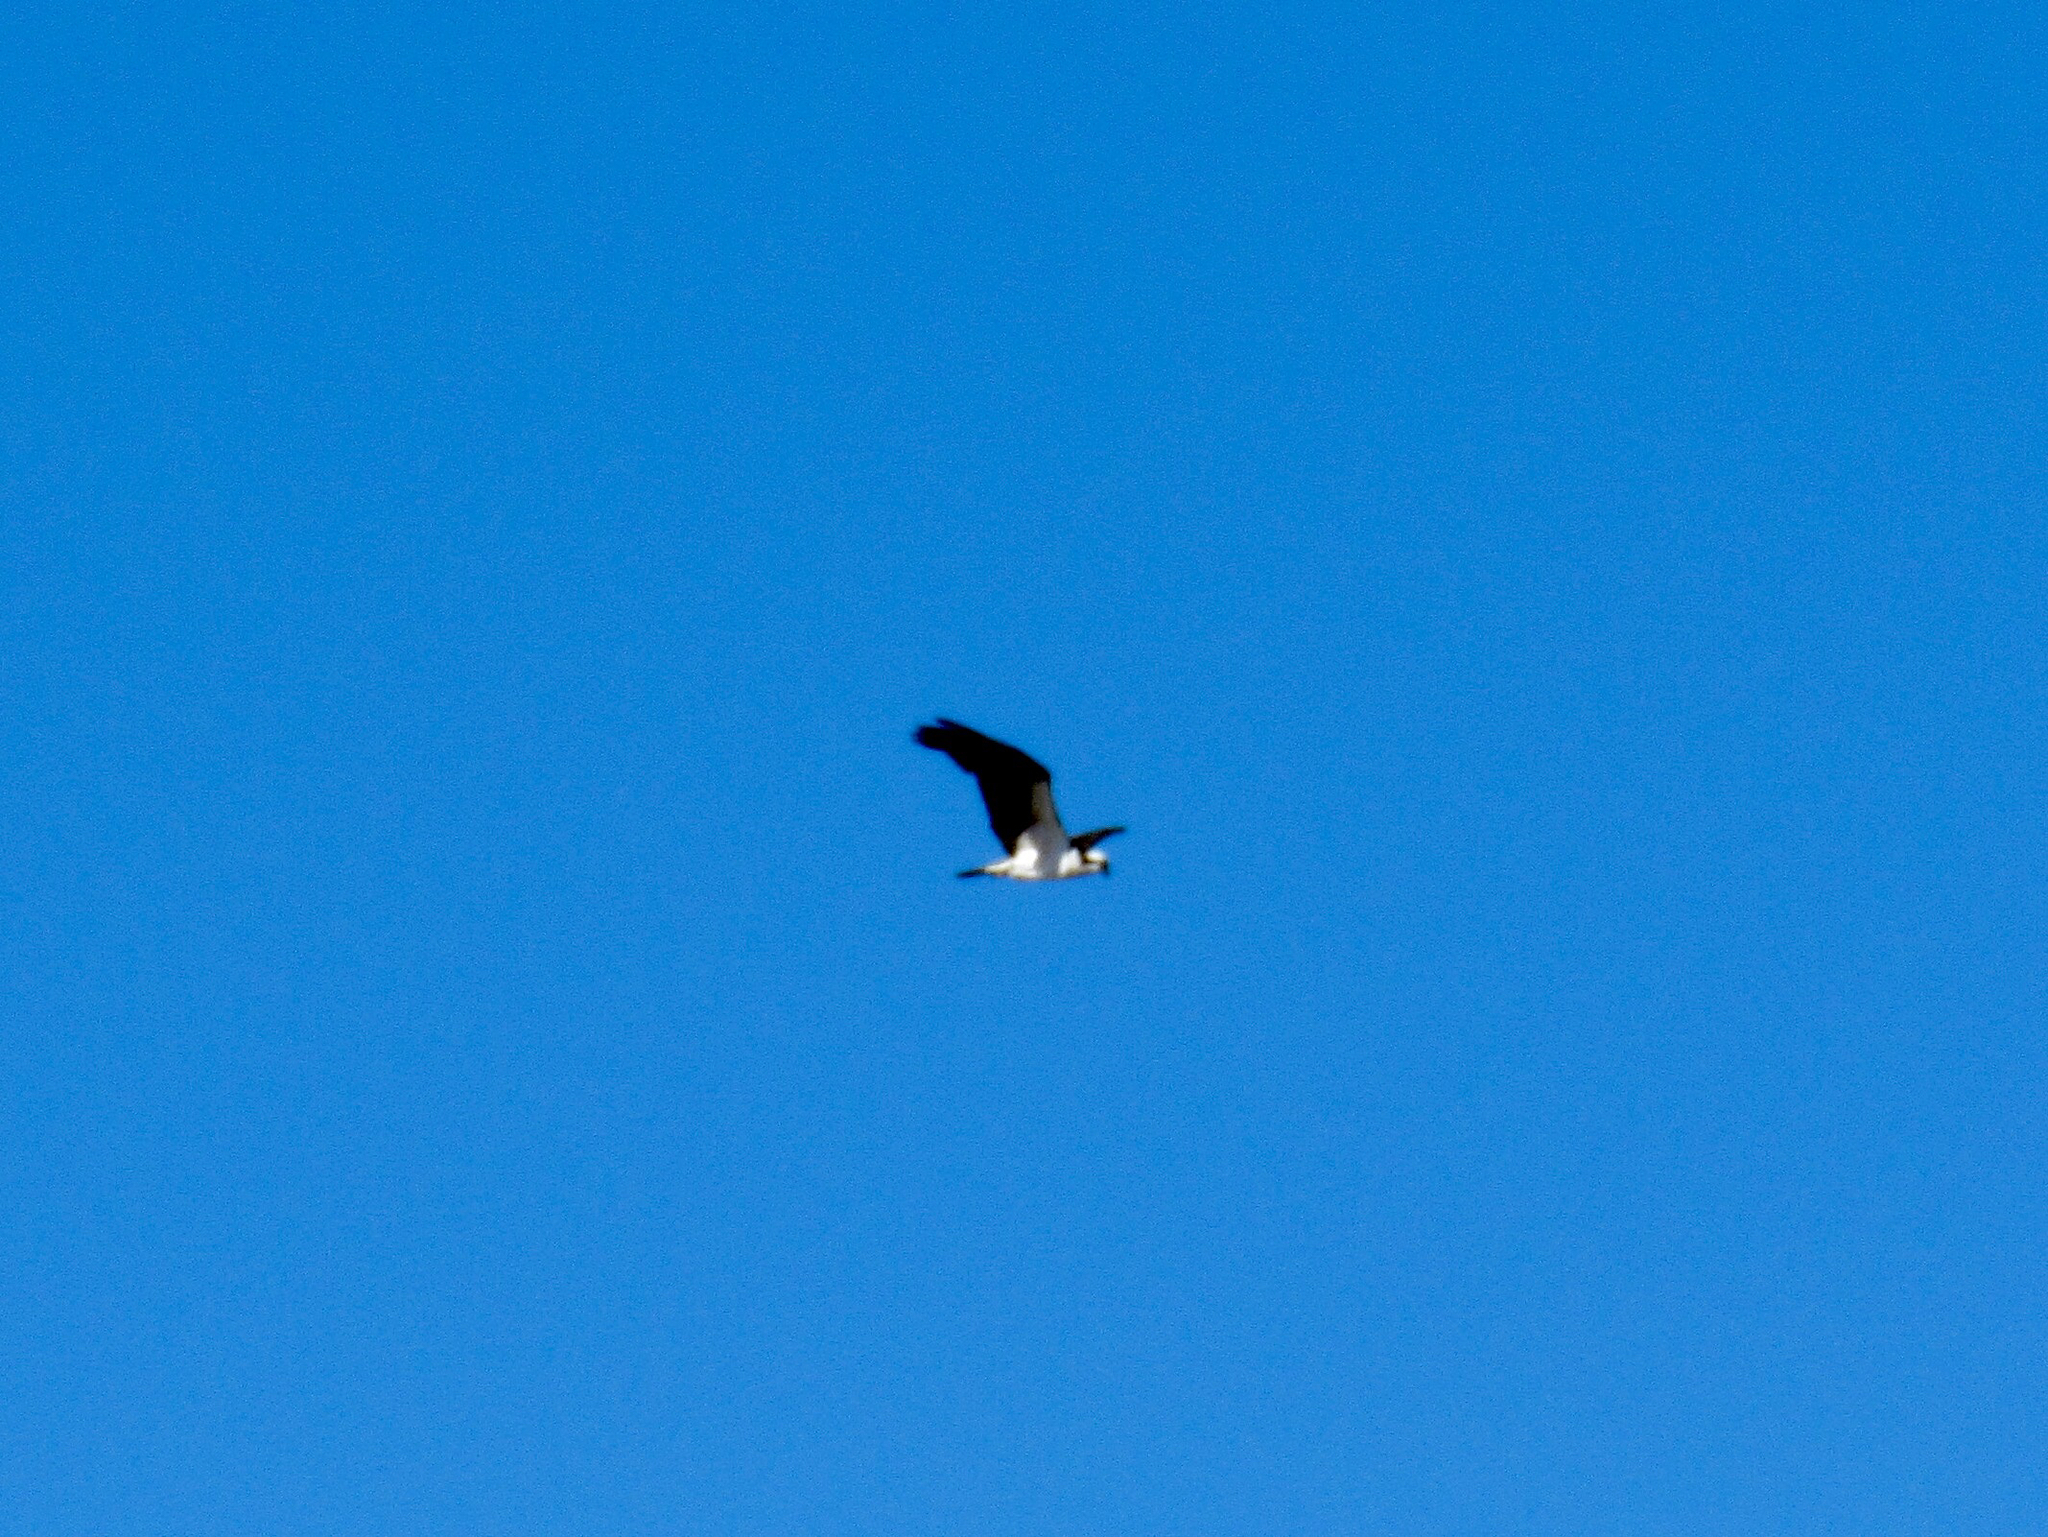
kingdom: Animalia
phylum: Chordata
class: Aves
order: Accipitriformes
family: Pandionidae
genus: Pandion
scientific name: Pandion haliaetus
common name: Osprey
